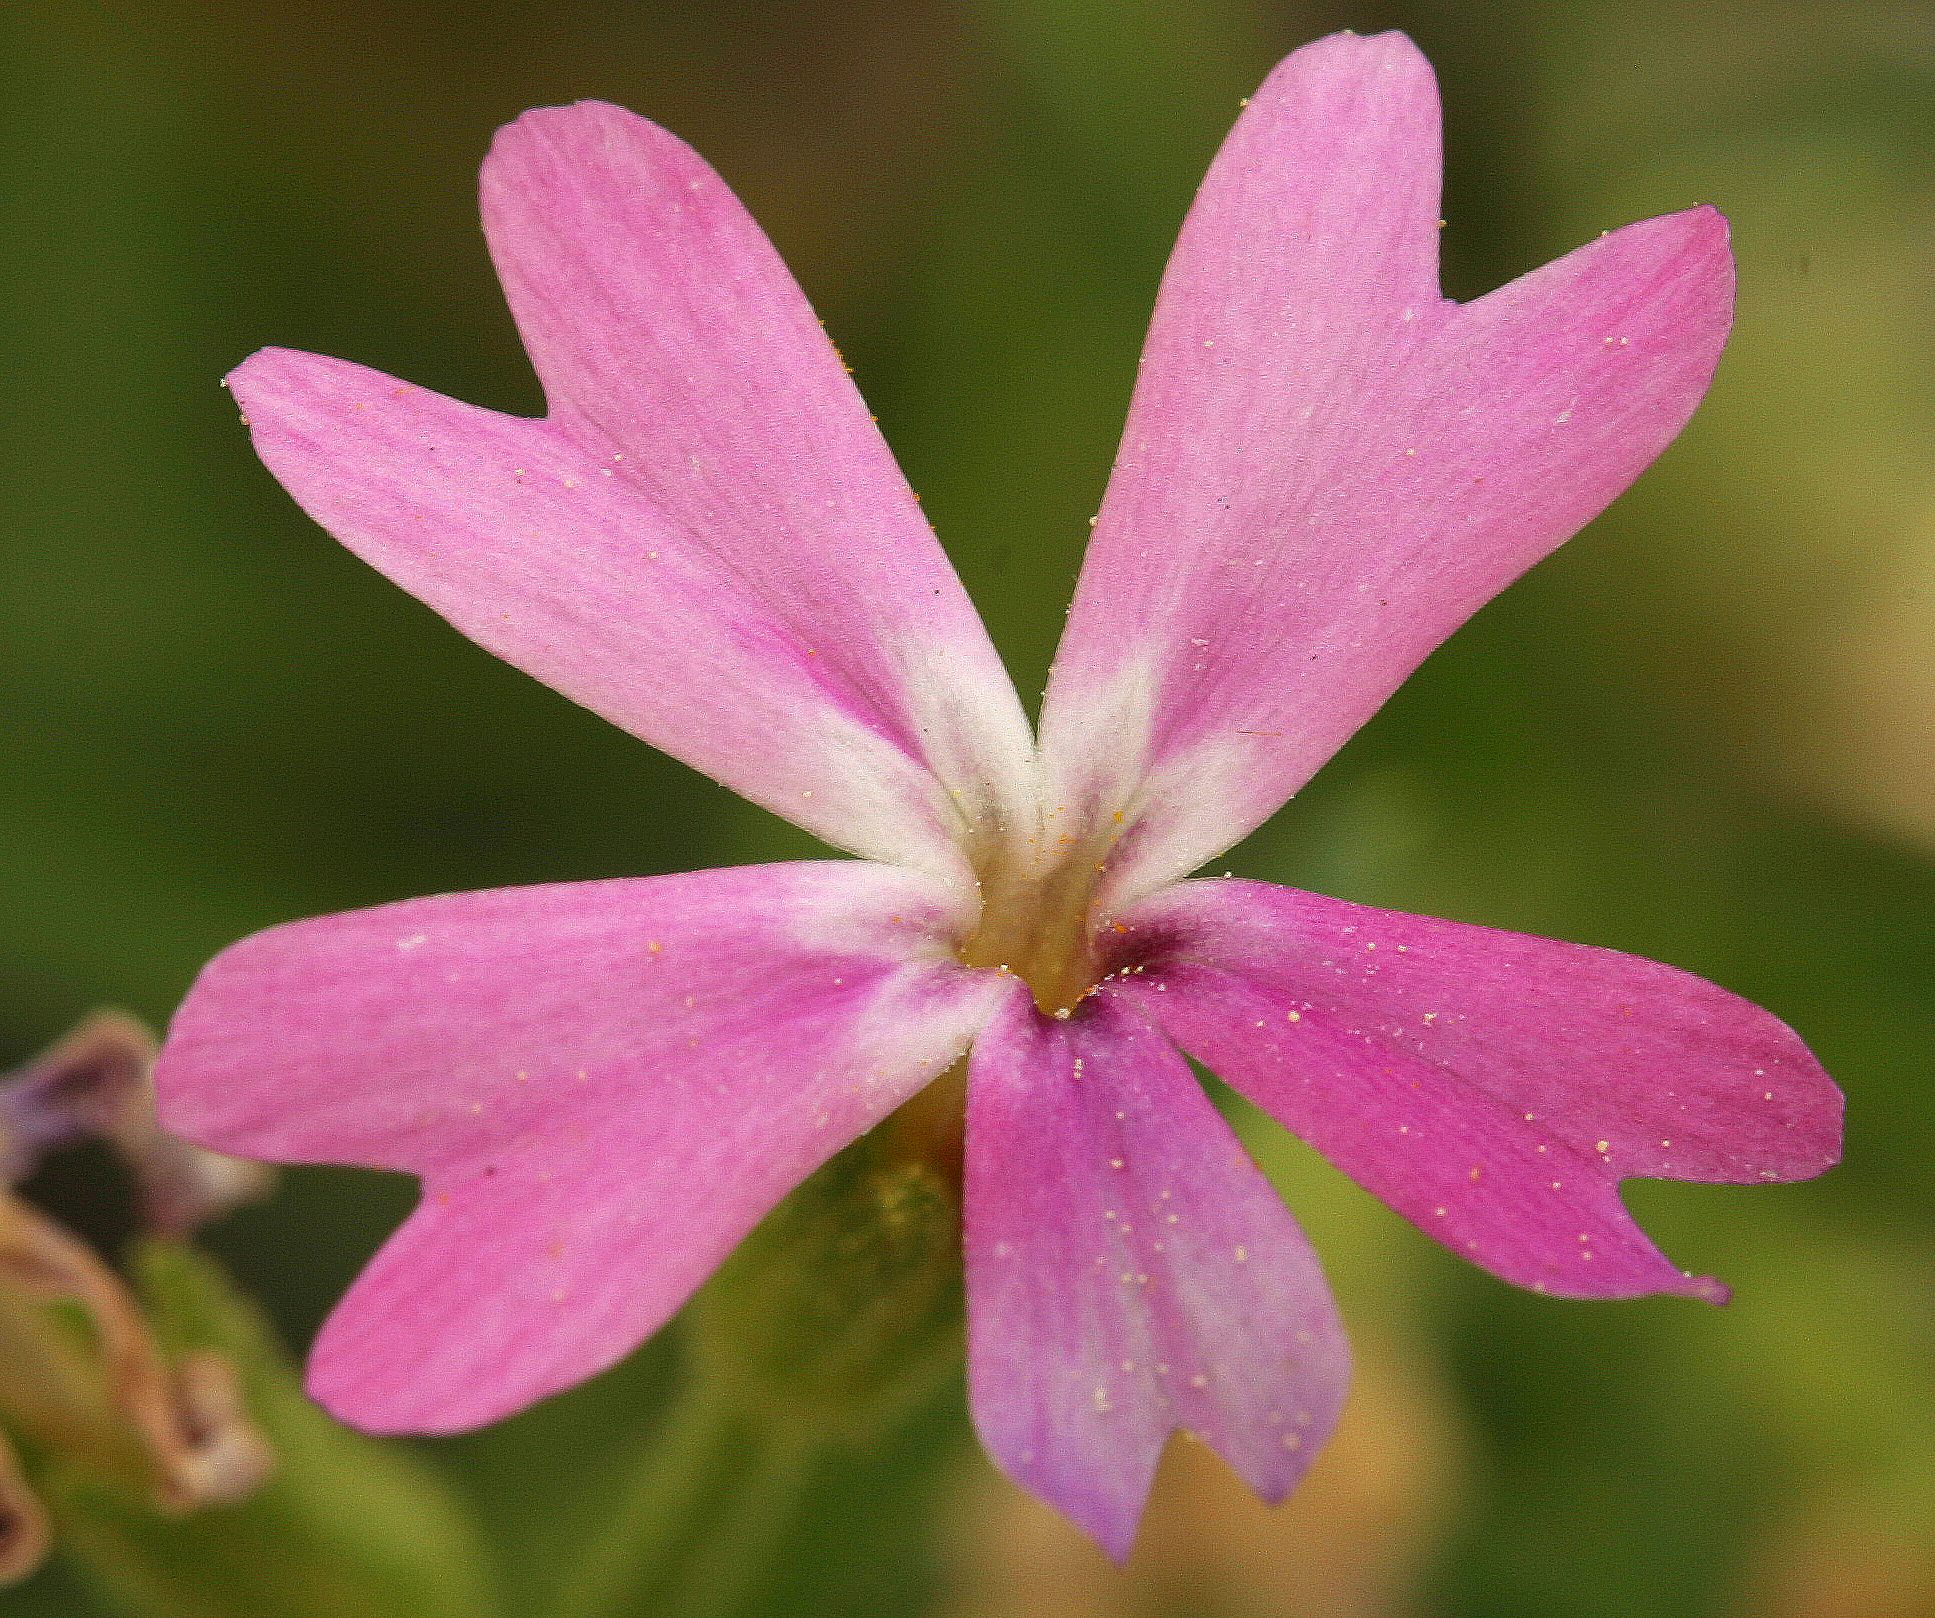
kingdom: Plantae
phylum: Tracheophyta
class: Magnoliopsida
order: Ericales
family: Polemoniaceae
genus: Phlox
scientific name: Phlox speciosa
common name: Bush phlox
